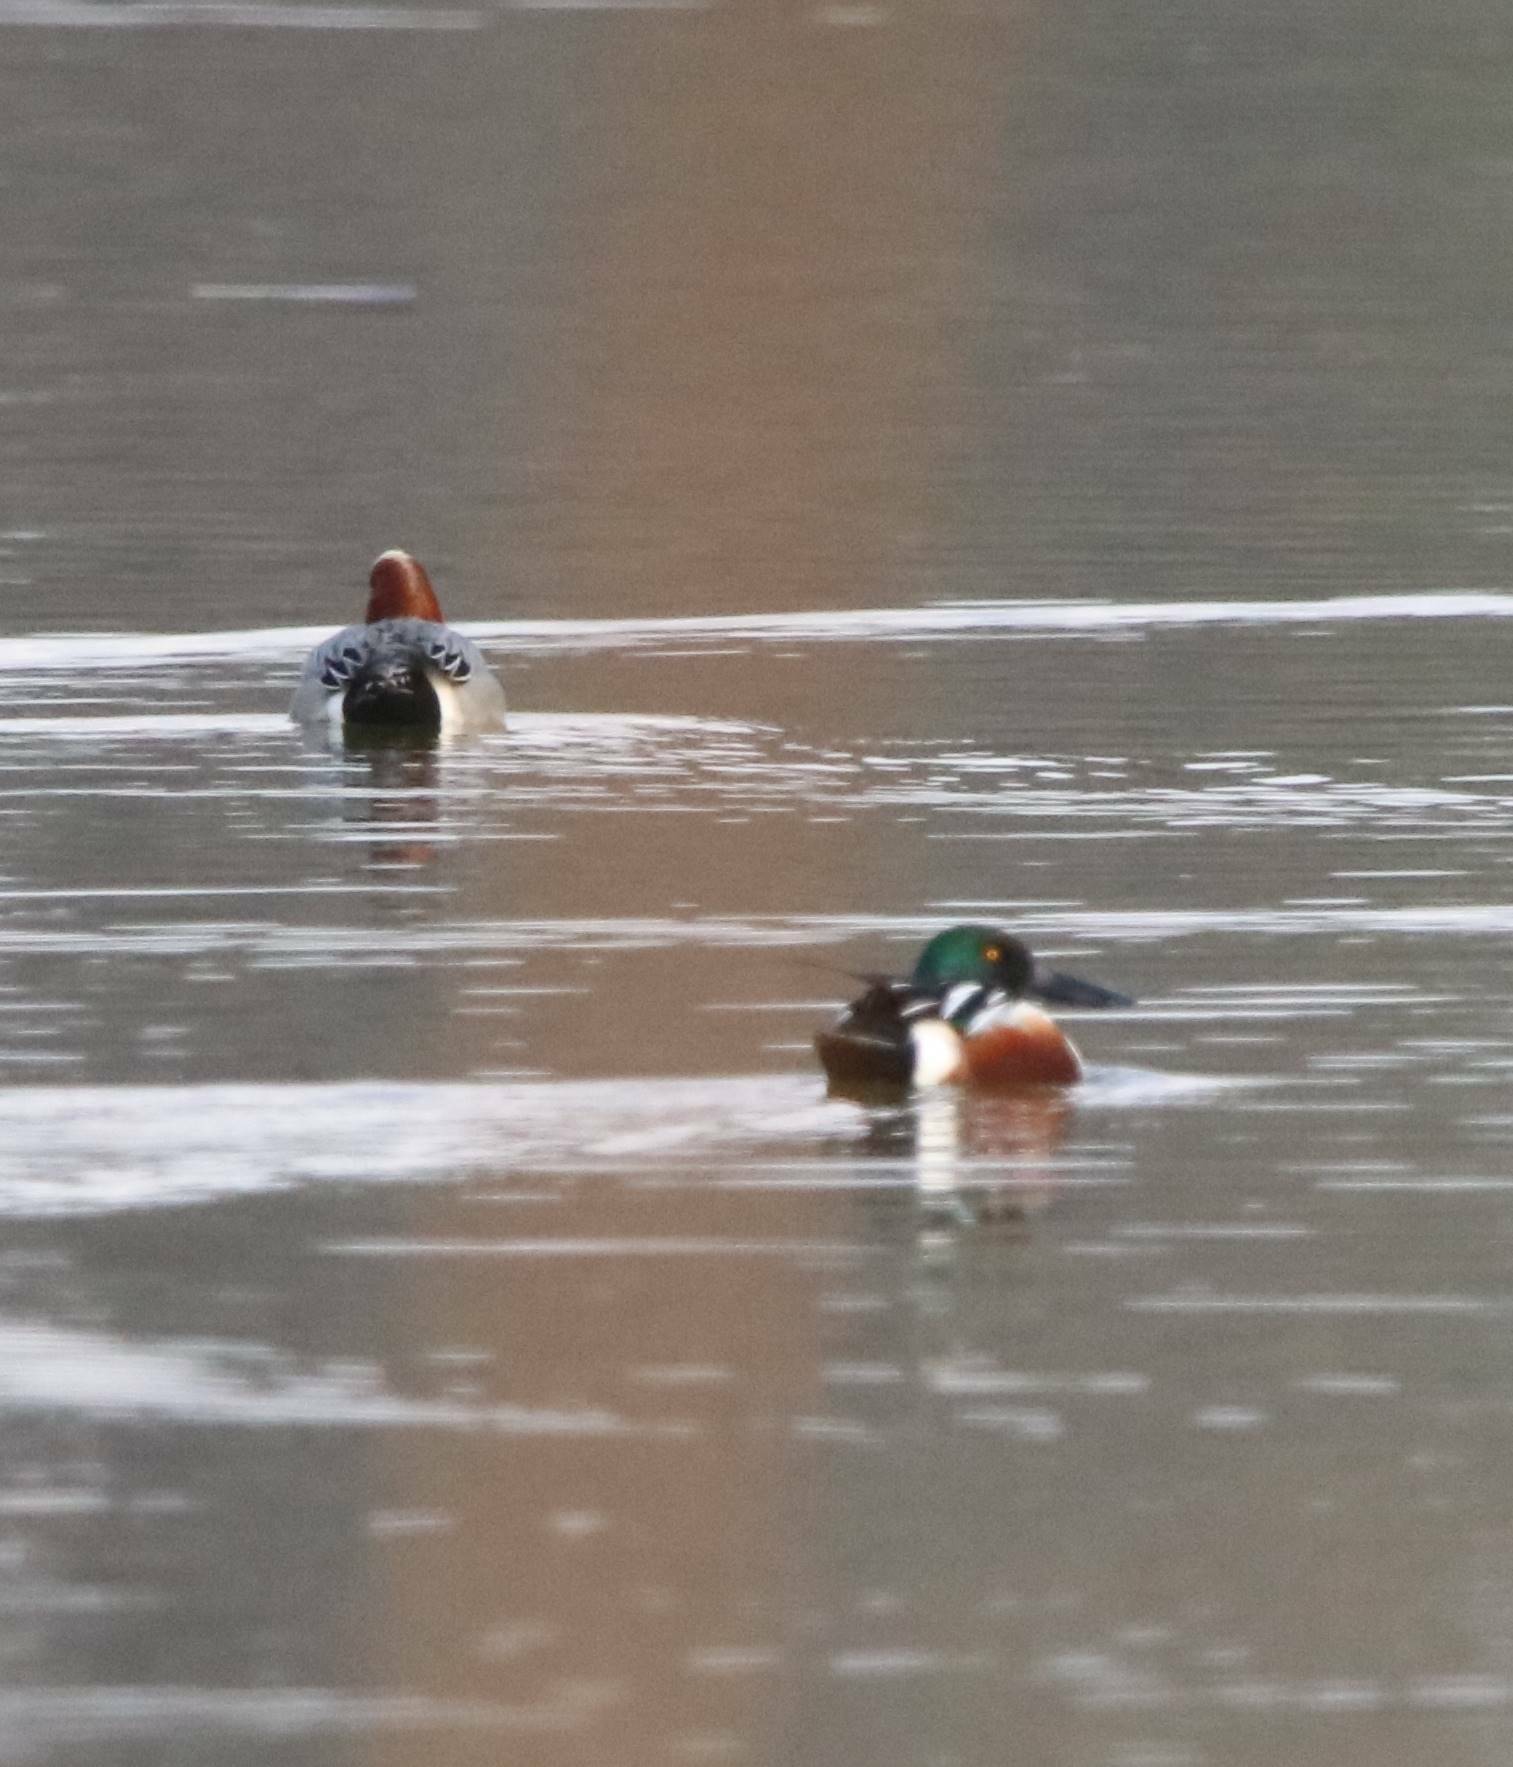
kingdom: Animalia
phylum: Chordata
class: Aves
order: Anseriformes
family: Anatidae
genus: Spatula
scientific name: Spatula clypeata
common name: Northern shoveler
